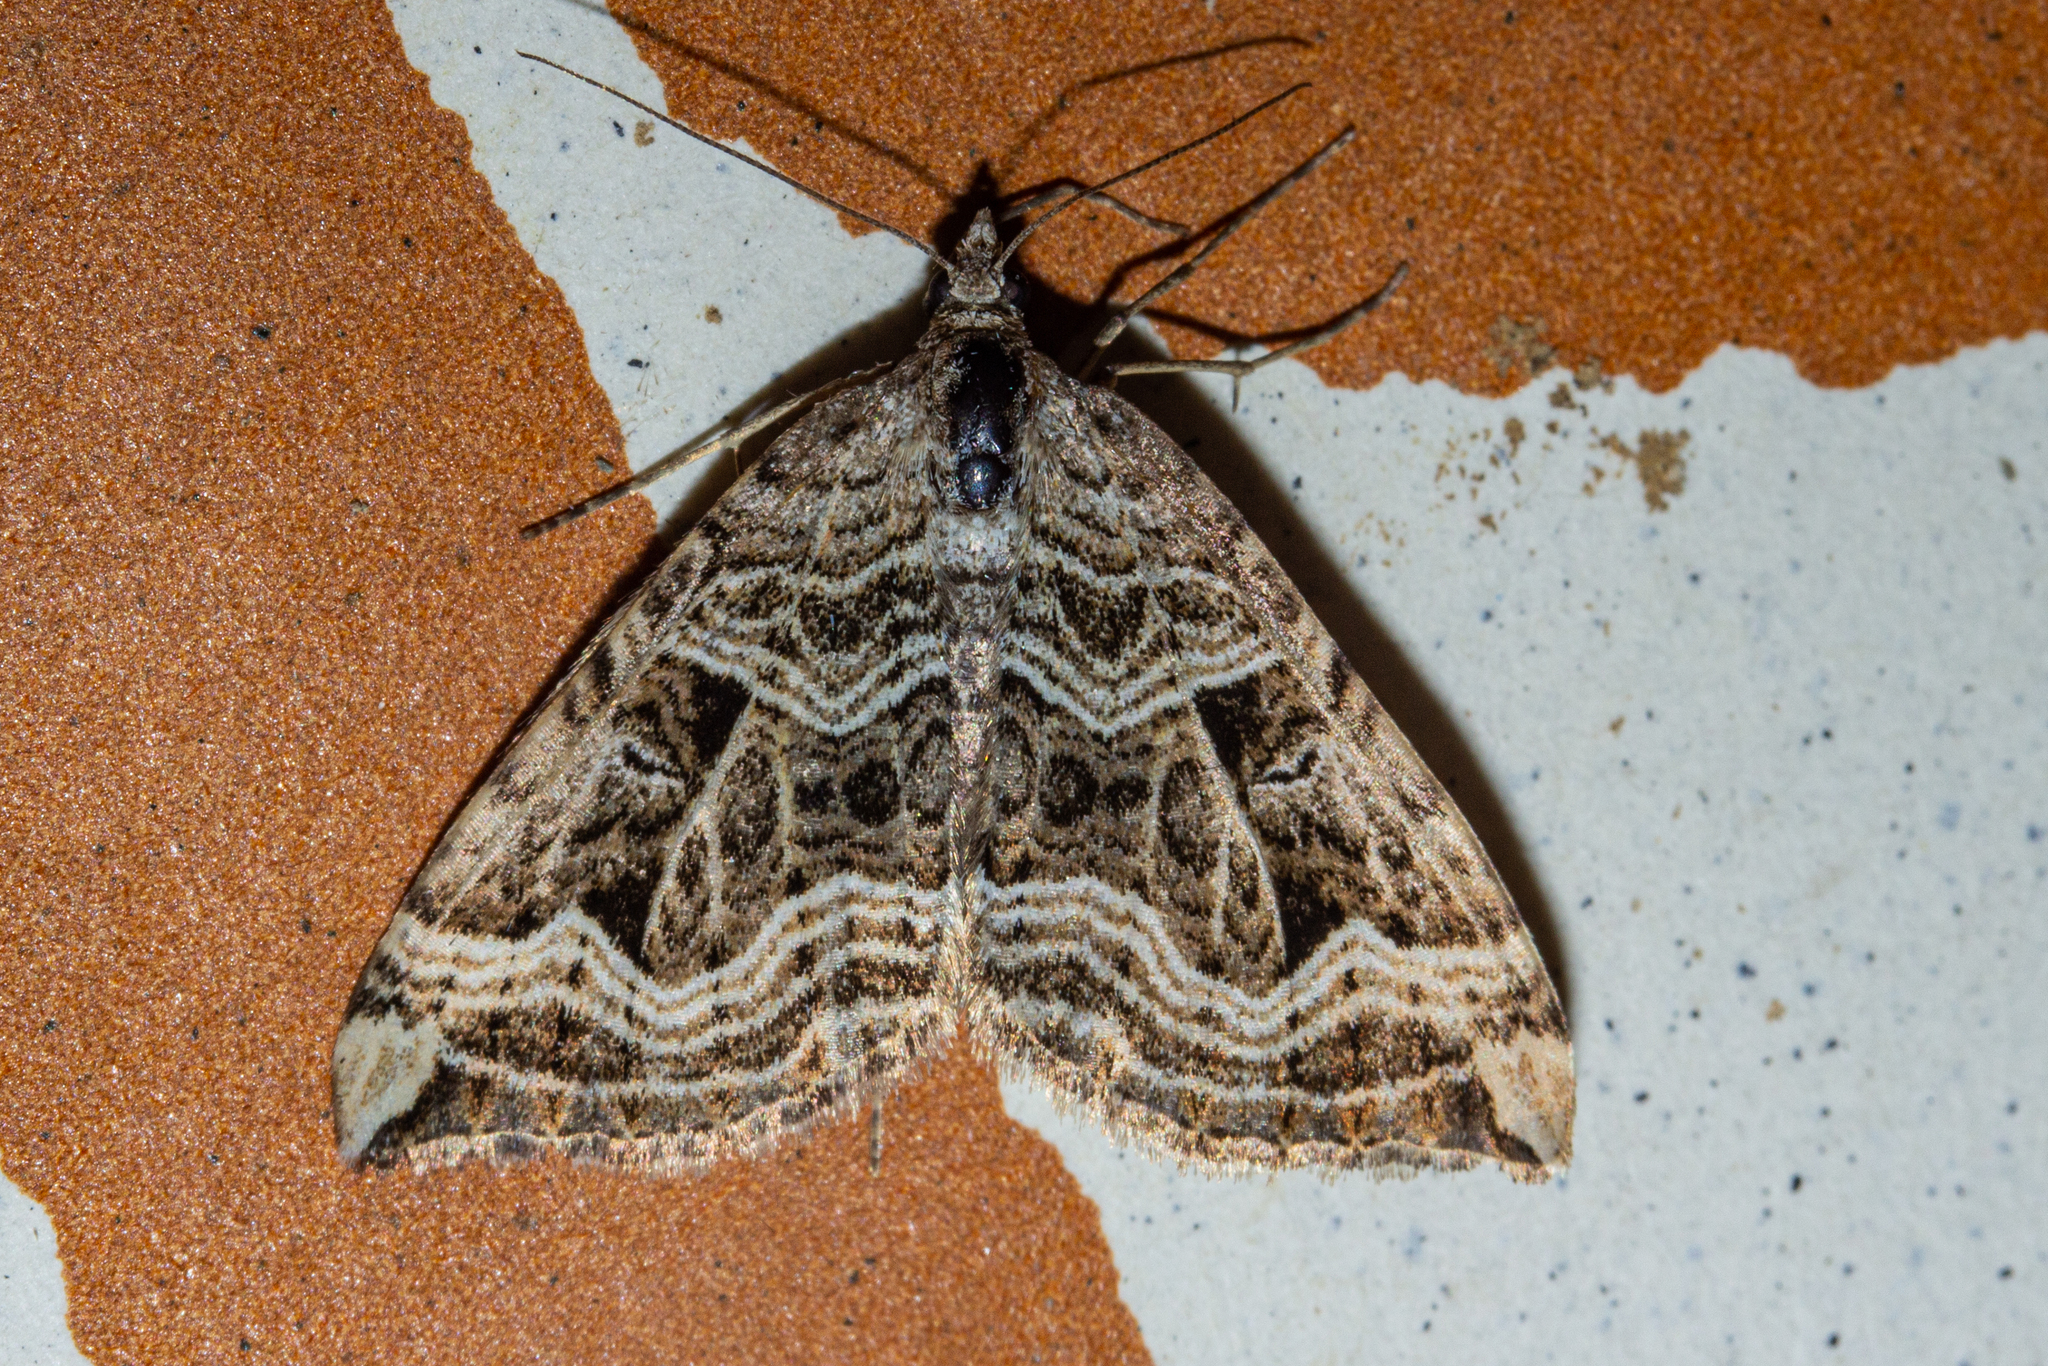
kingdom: Animalia
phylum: Arthropoda
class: Insecta
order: Lepidoptera
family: Geometridae
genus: Xanthorhoe
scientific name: Xanthorhoe semifissata
